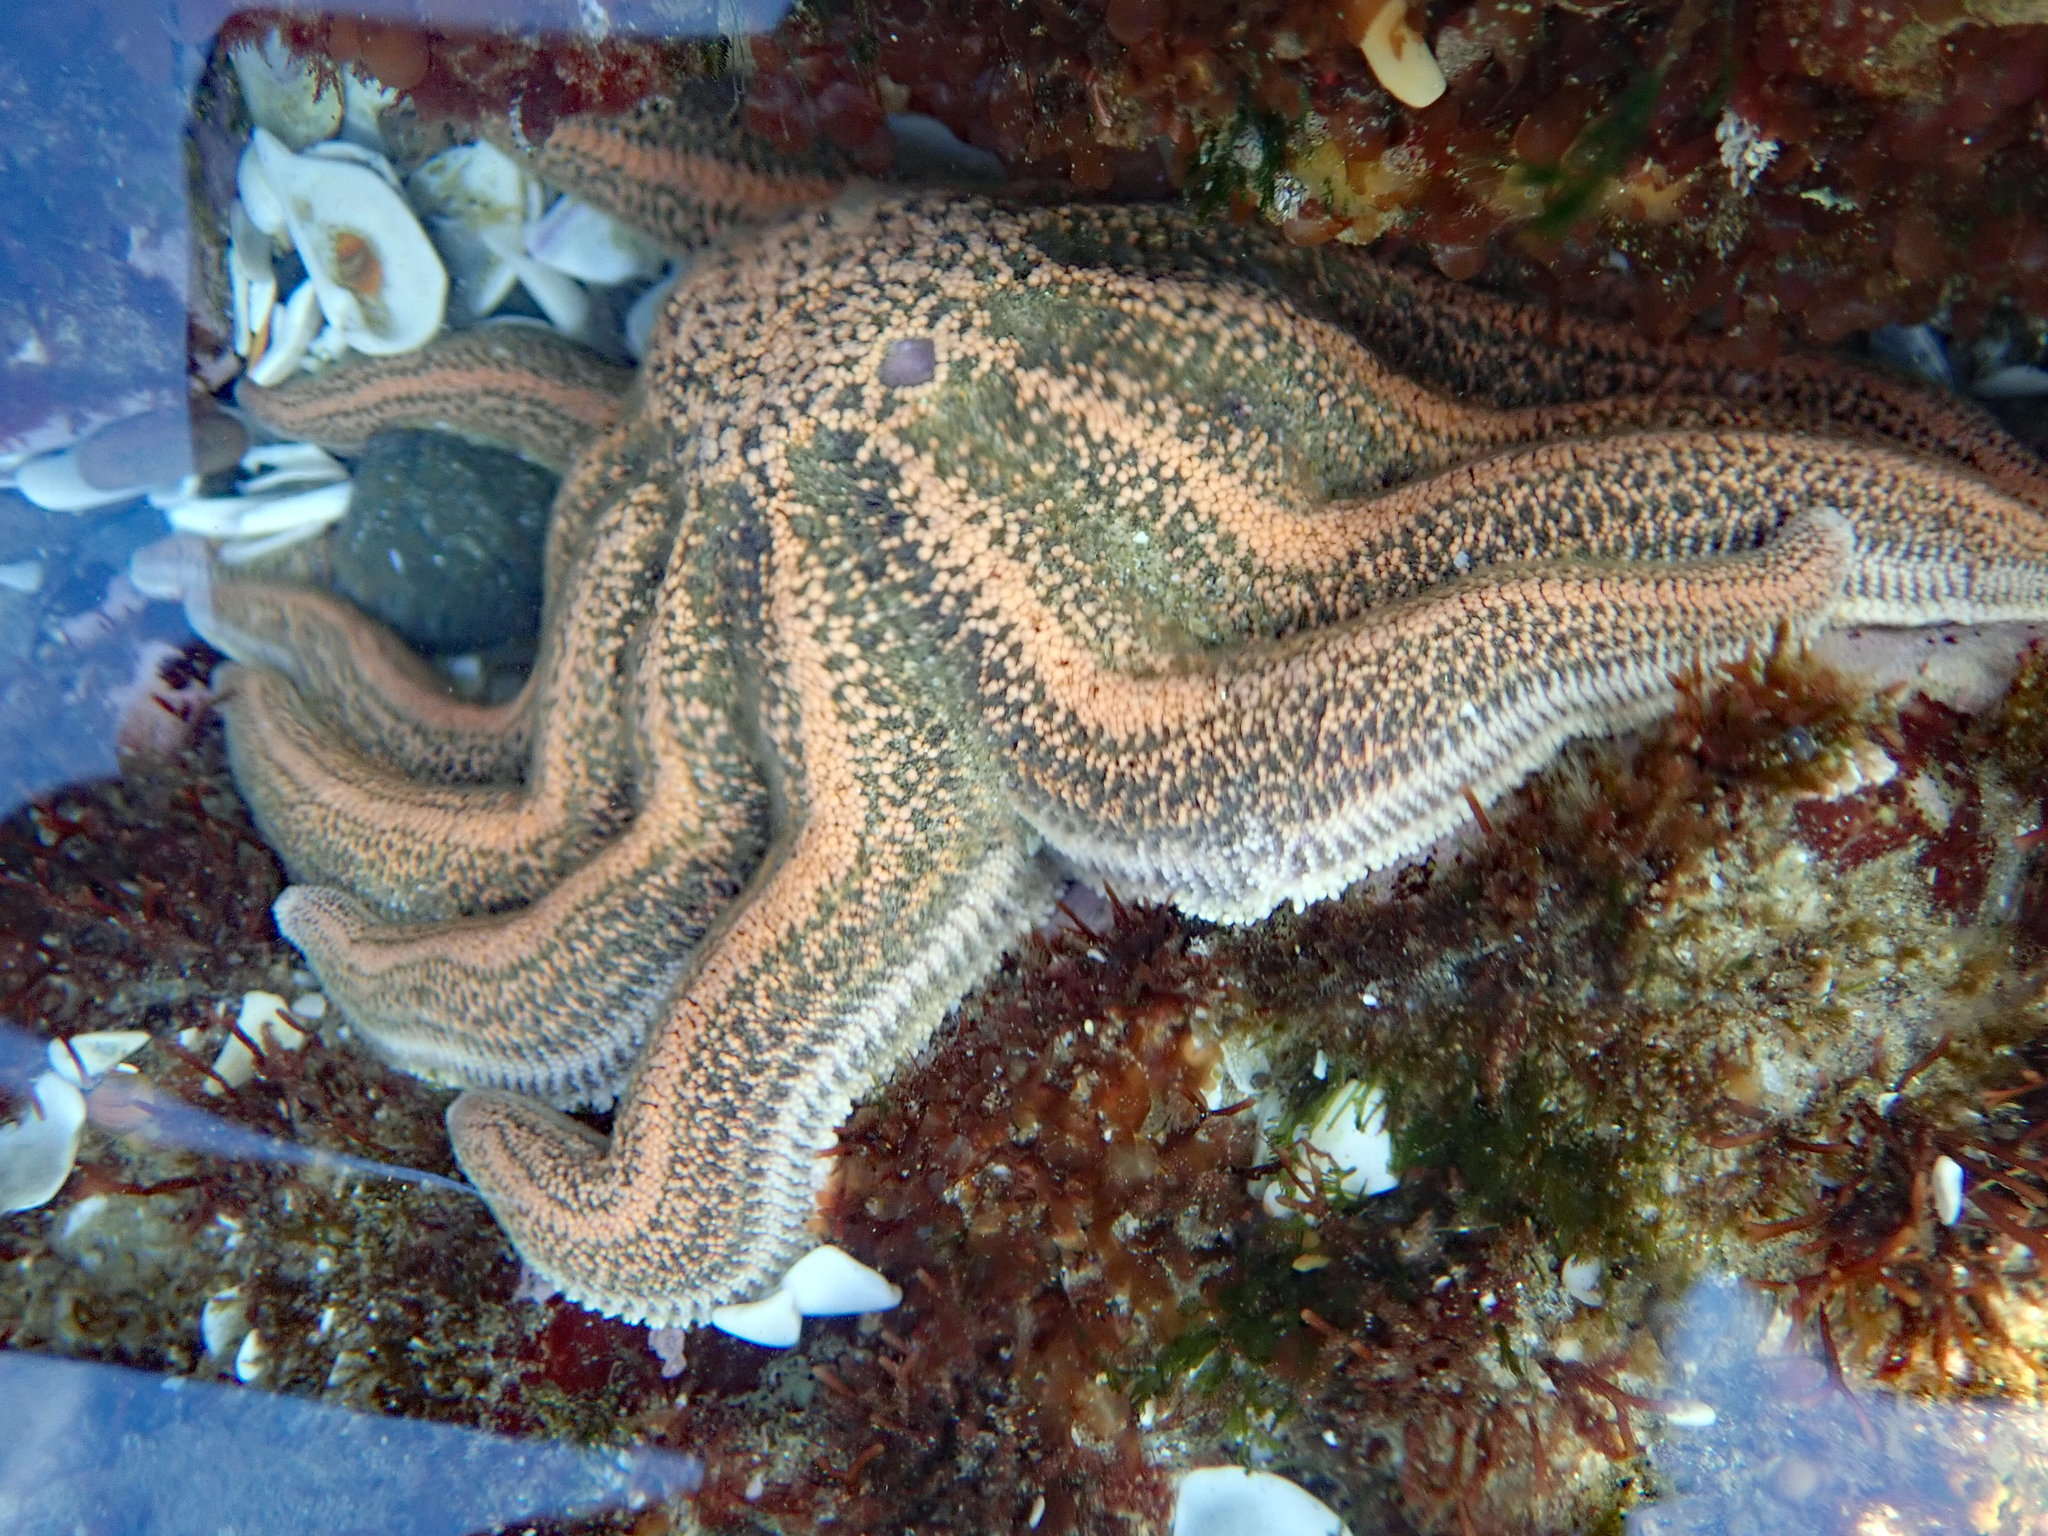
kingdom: Animalia
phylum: Echinodermata
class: Asteroidea
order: Forcipulatida
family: Stichasteridae
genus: Stichaster
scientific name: Stichaster australis
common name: Reef starfish
